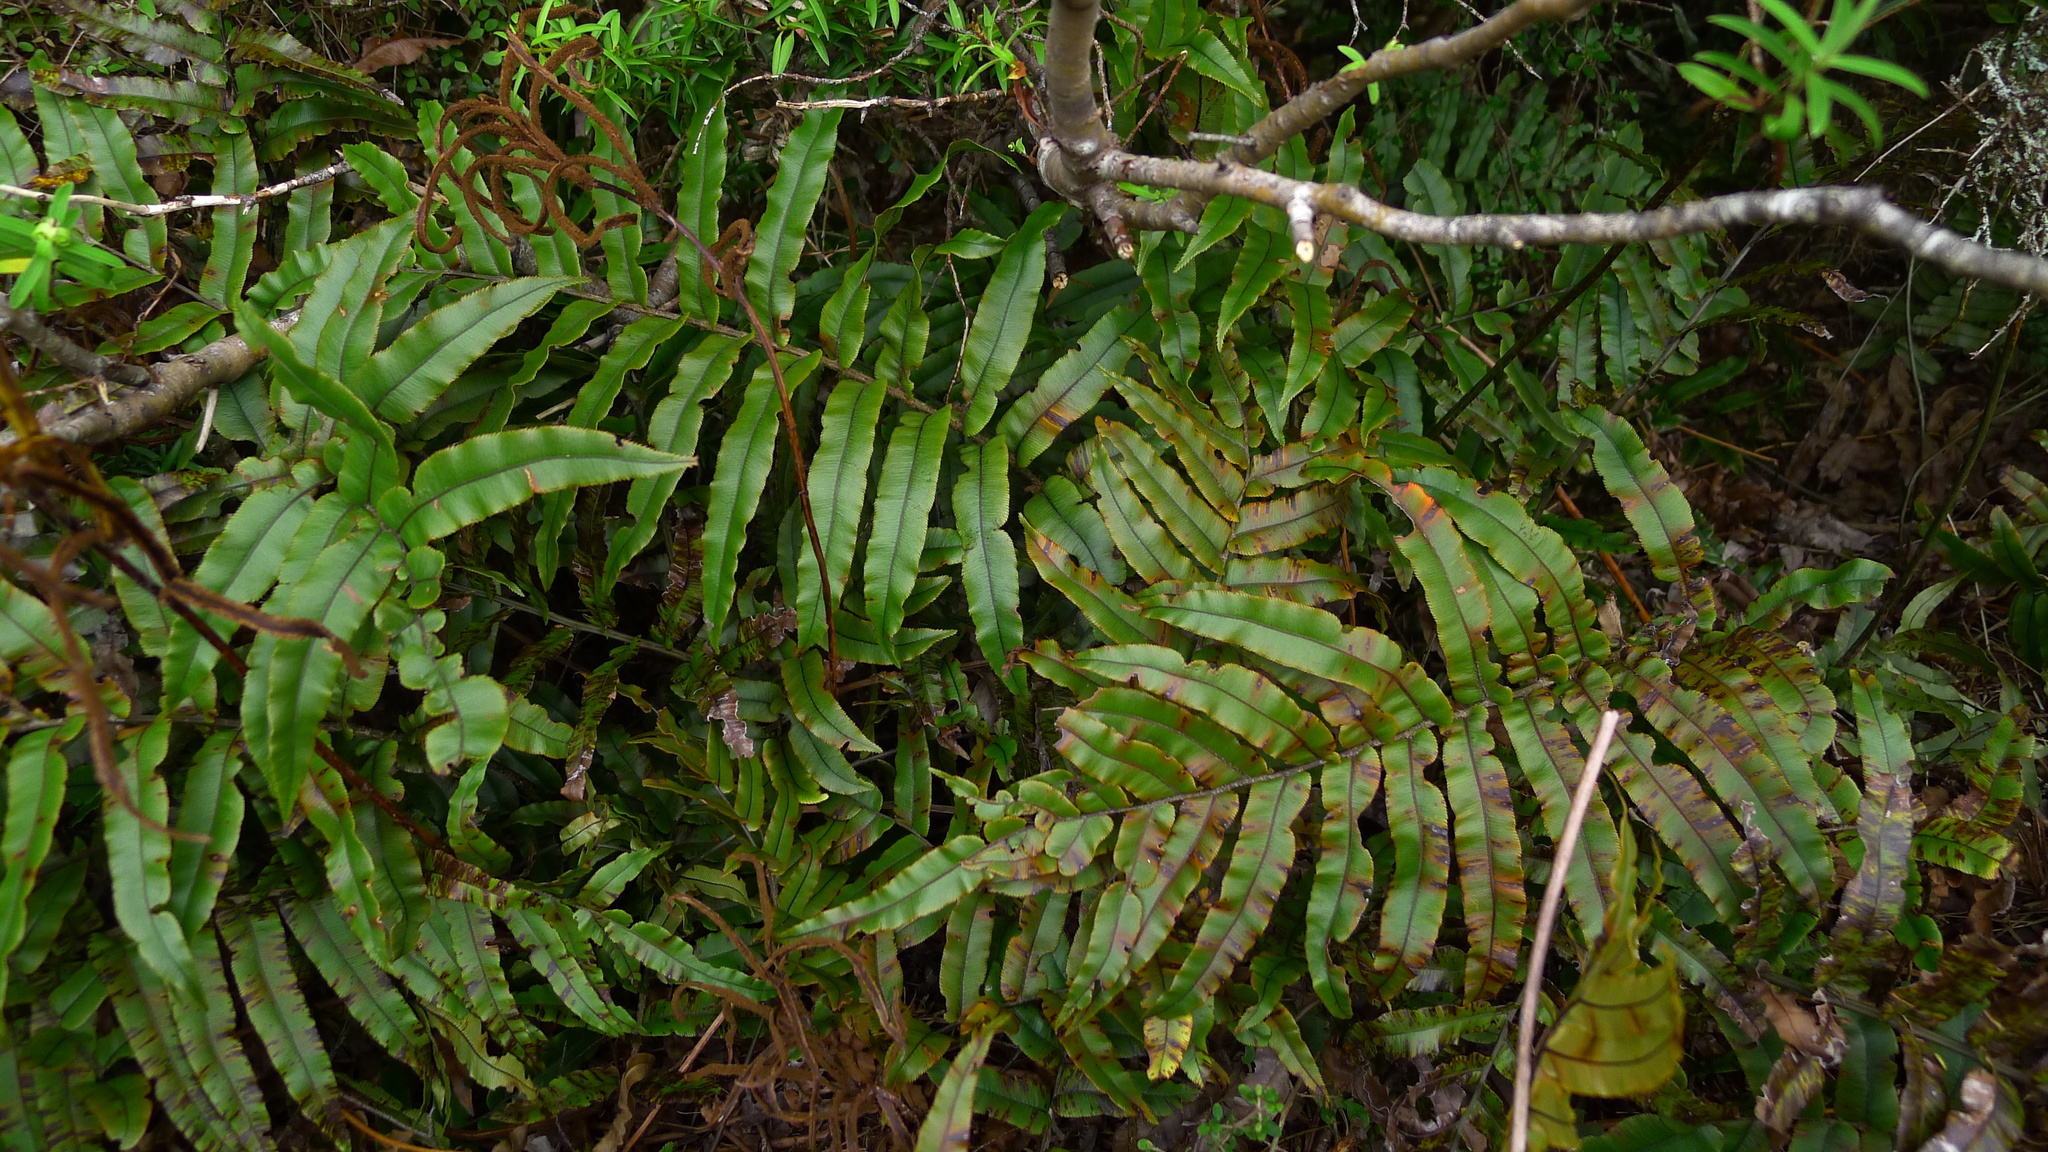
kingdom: Plantae
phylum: Tracheophyta
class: Polypodiopsida
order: Polypodiales
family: Blechnaceae
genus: Parablechnum
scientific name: Parablechnum montanum
